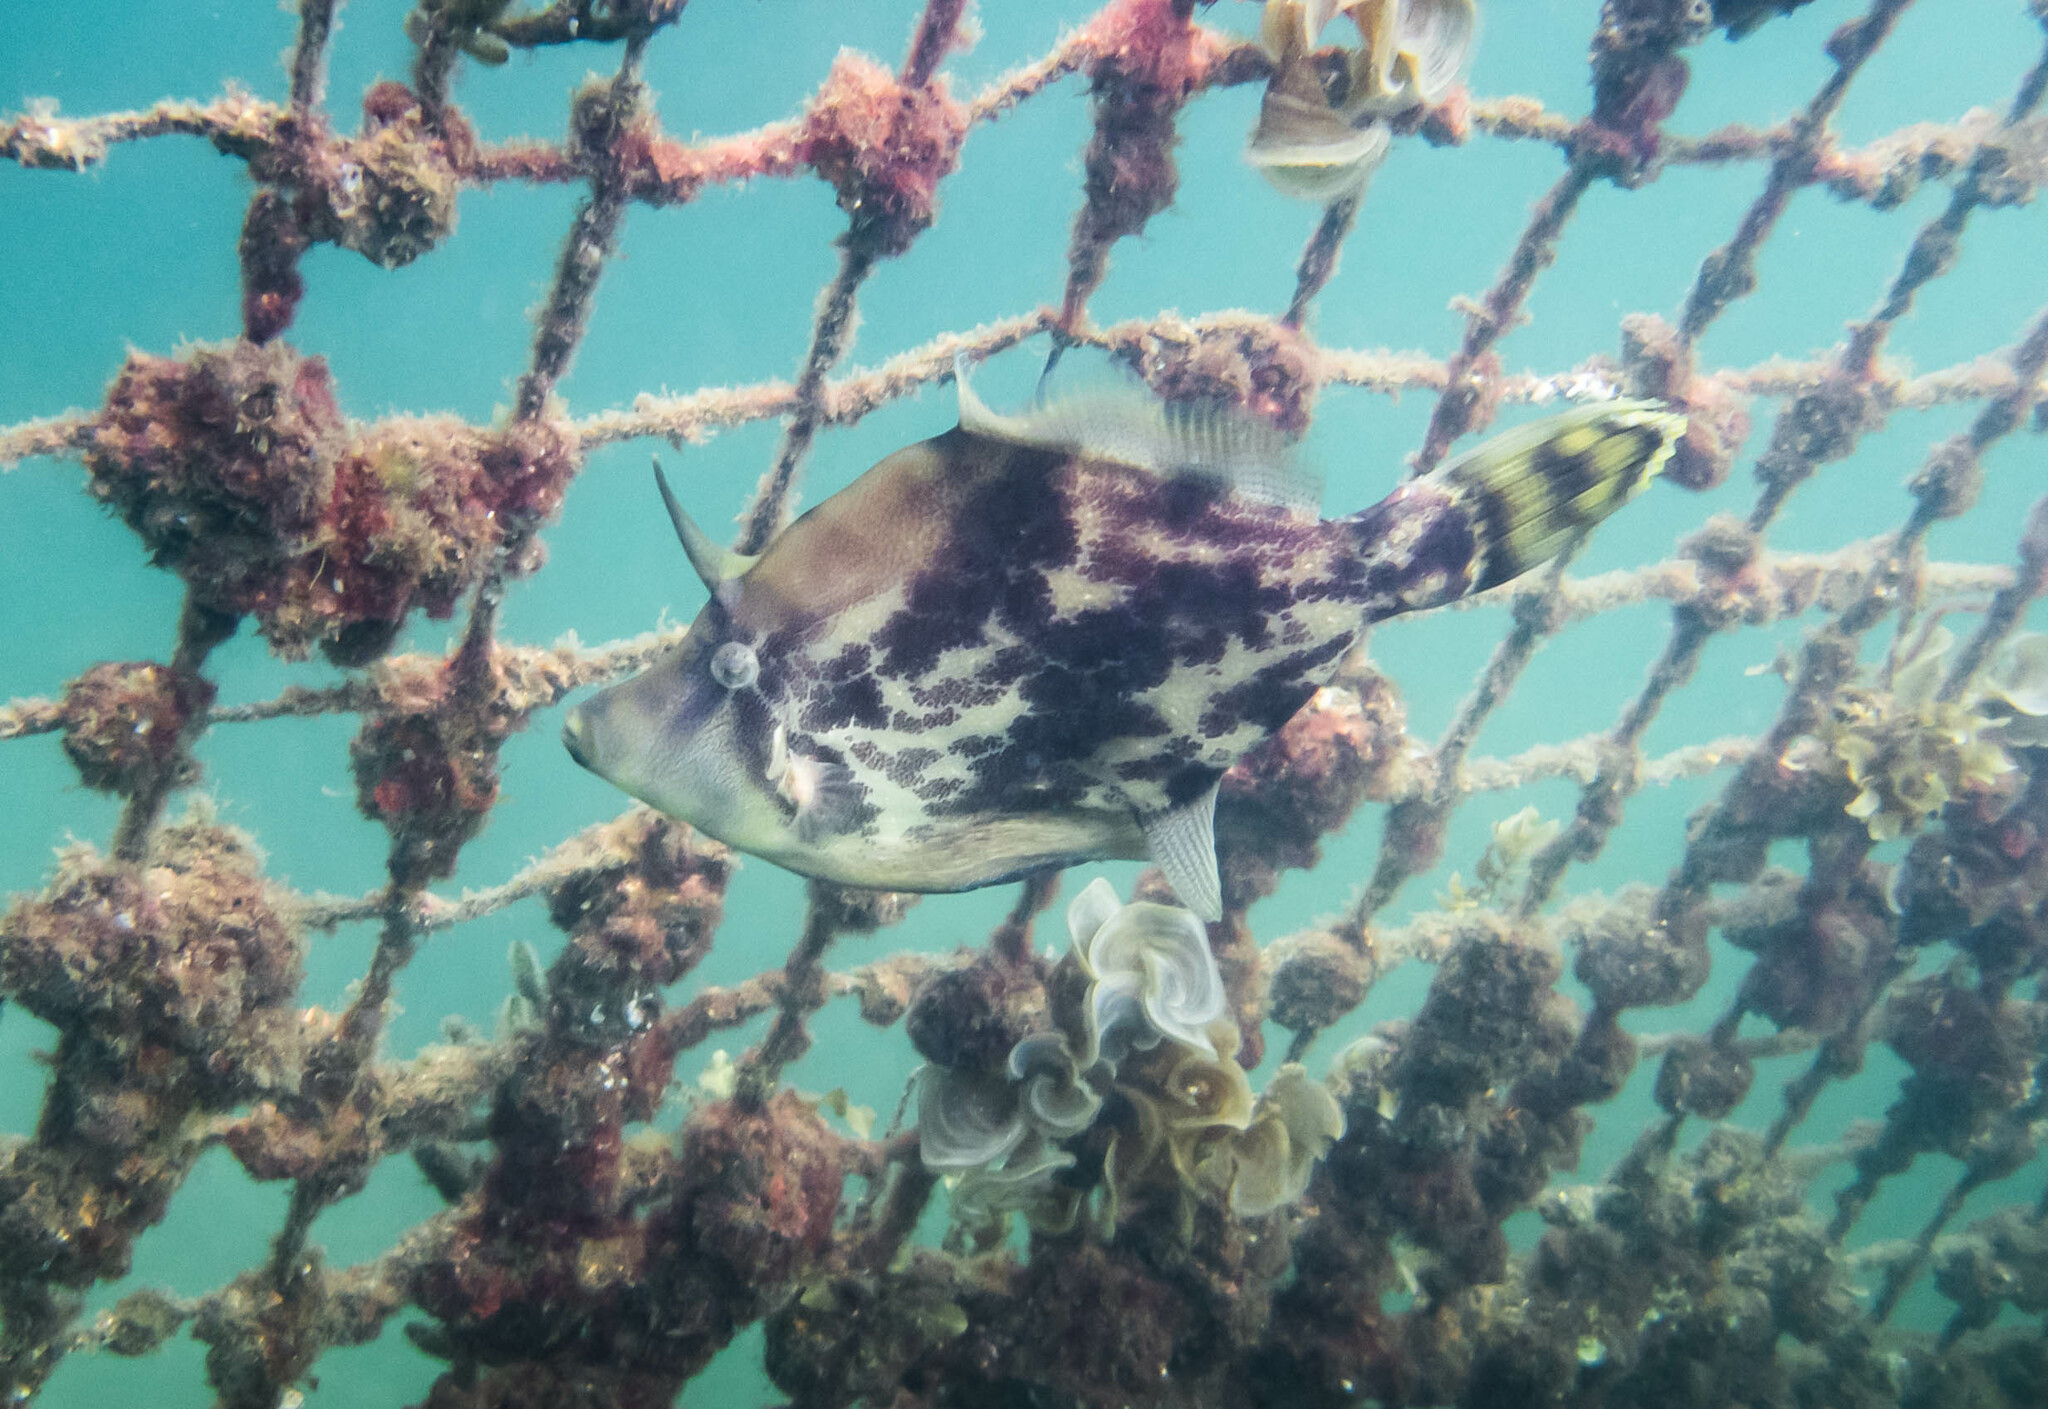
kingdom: Animalia
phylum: Chordata
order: Tetraodontiformes
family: Monacanthidae
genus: Monacanthus
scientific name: Monacanthus chinensis
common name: Centreboard leatherjacket
